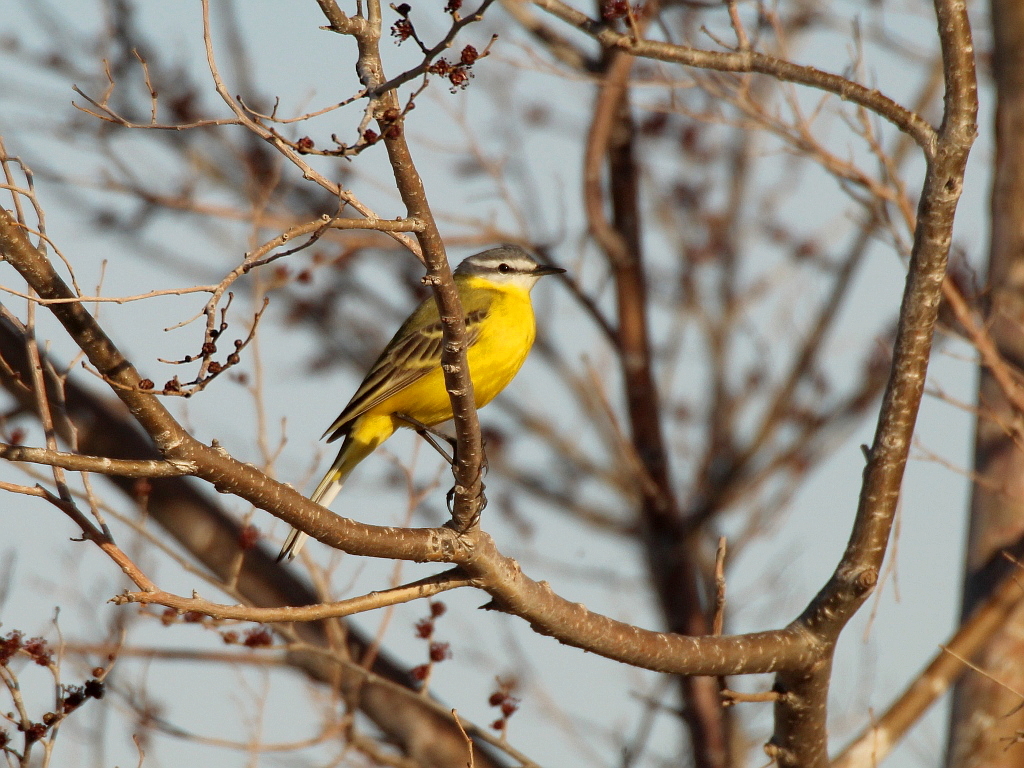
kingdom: Animalia
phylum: Chordata
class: Aves
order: Passeriformes
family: Motacillidae
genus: Motacilla
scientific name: Motacilla flava
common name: Western yellow wagtail
